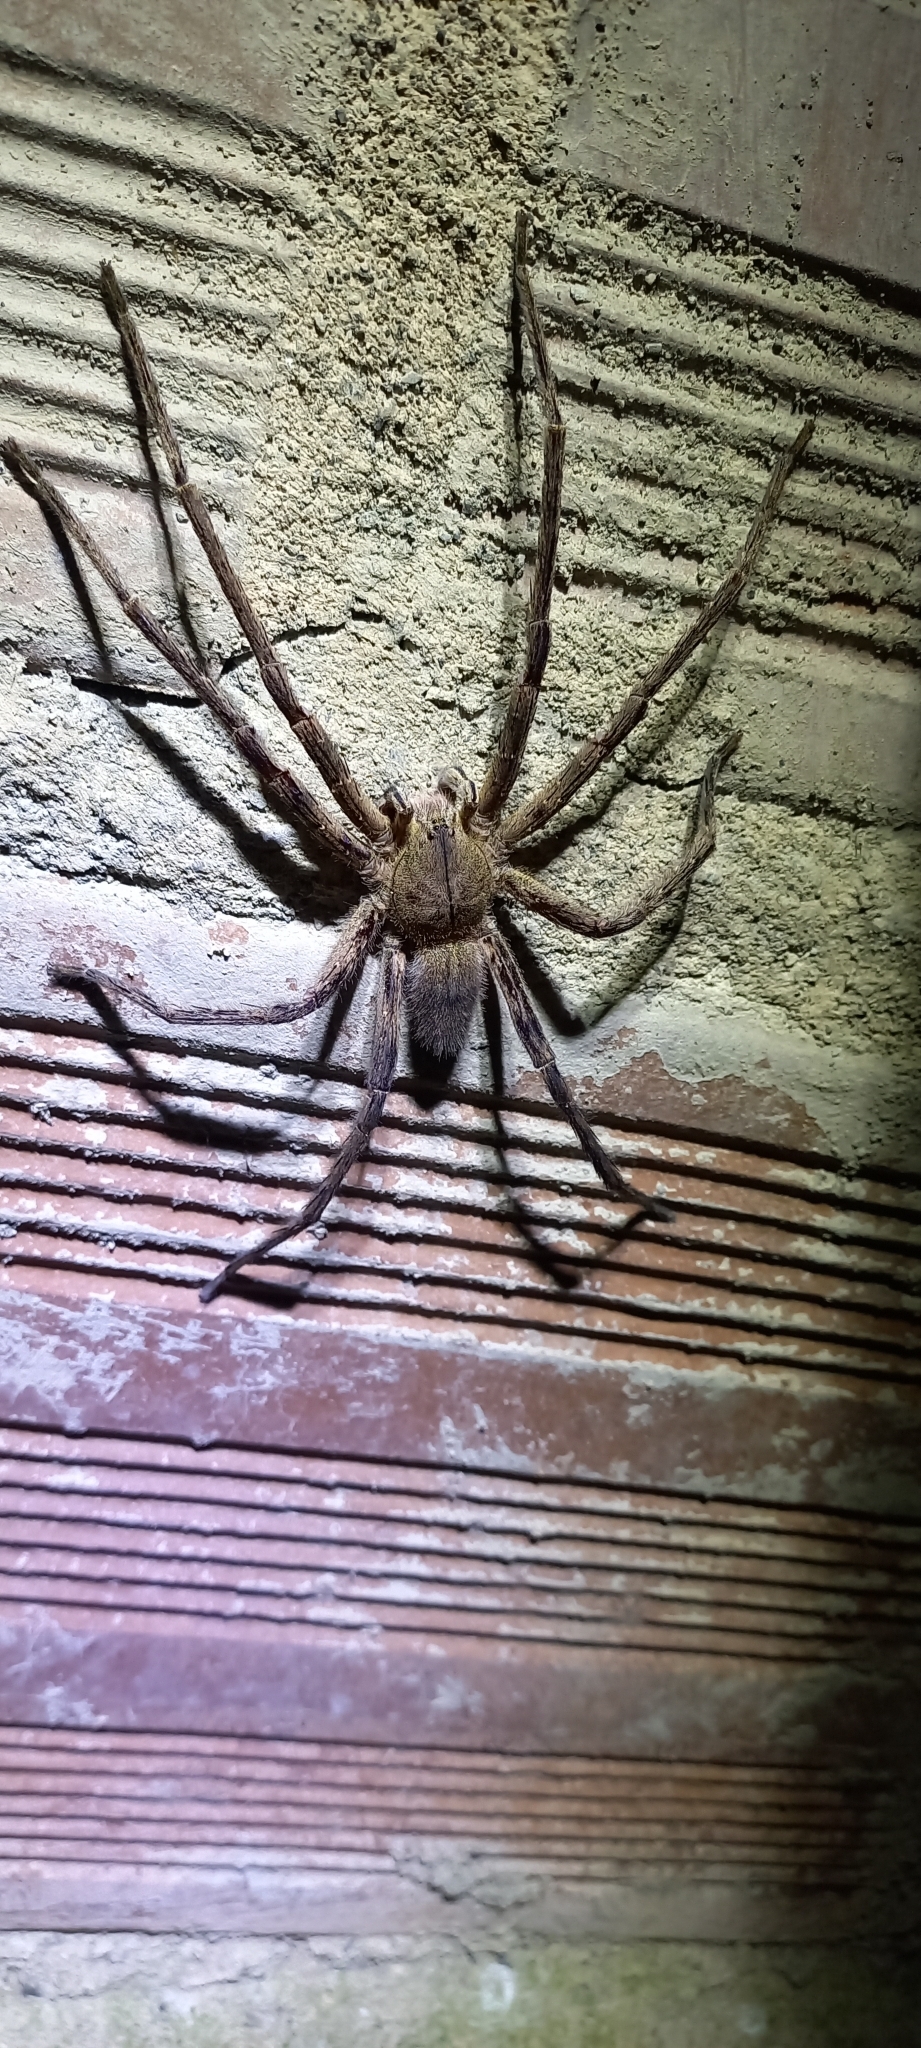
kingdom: Animalia
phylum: Arthropoda
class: Arachnida
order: Araneae
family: Ctenidae
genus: Phoneutria
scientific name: Phoneutria depilata
